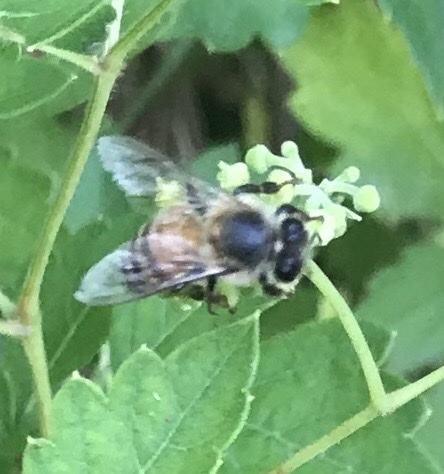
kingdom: Animalia
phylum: Arthropoda
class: Insecta
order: Hymenoptera
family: Apidae
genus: Apis
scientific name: Apis mellifera
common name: Honey bee
